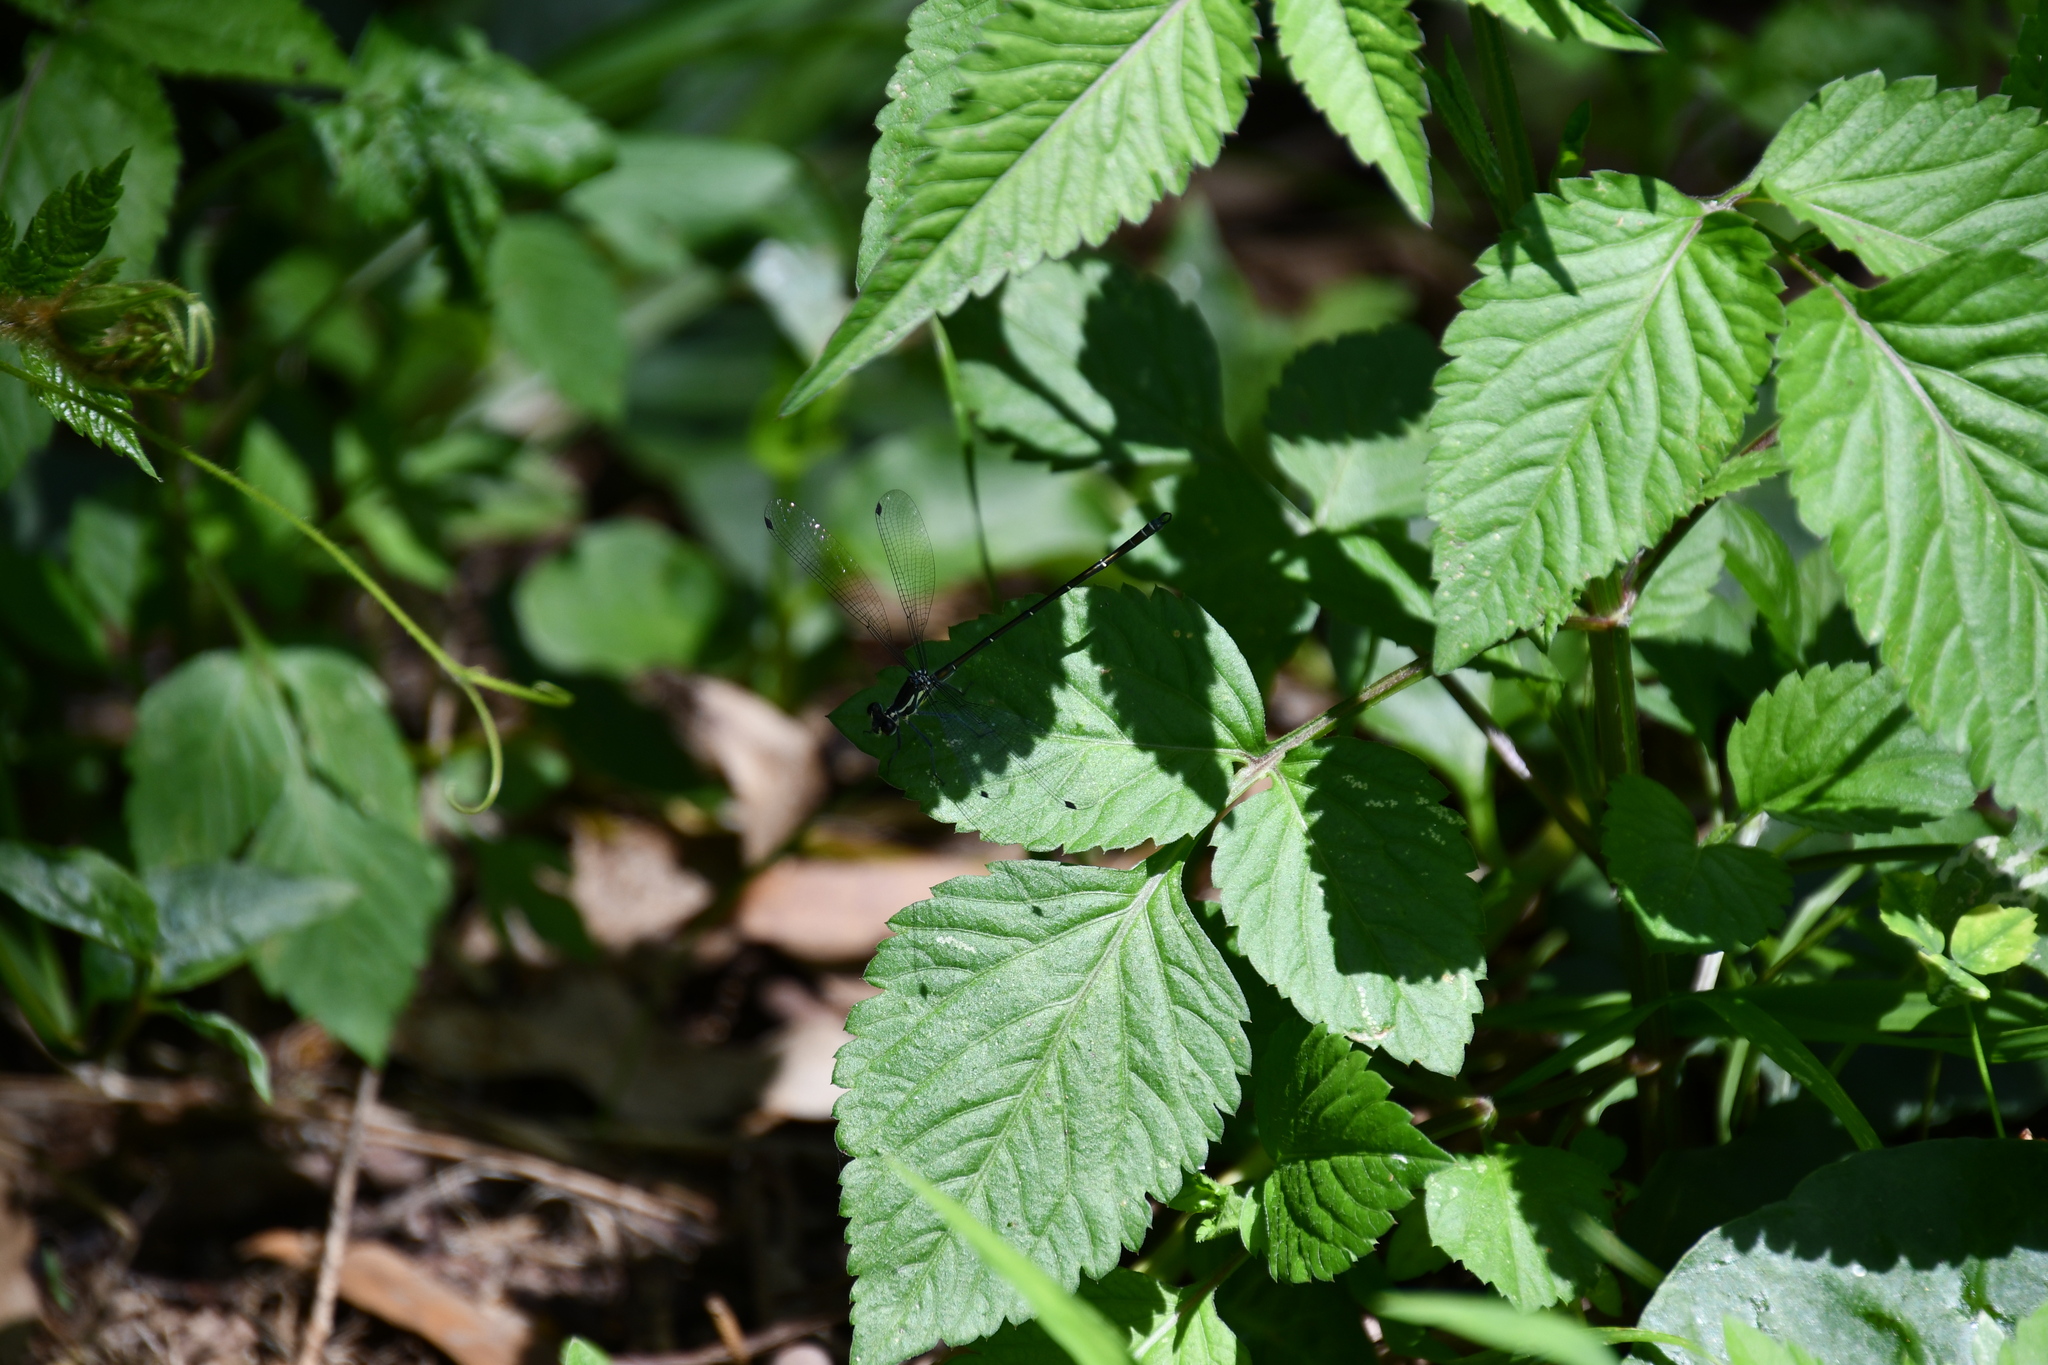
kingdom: Animalia
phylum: Arthropoda
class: Insecta
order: Odonata
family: Argiolestidae
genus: Austroargiolestes
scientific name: Austroargiolestes icteromelas
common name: Common flatwing
